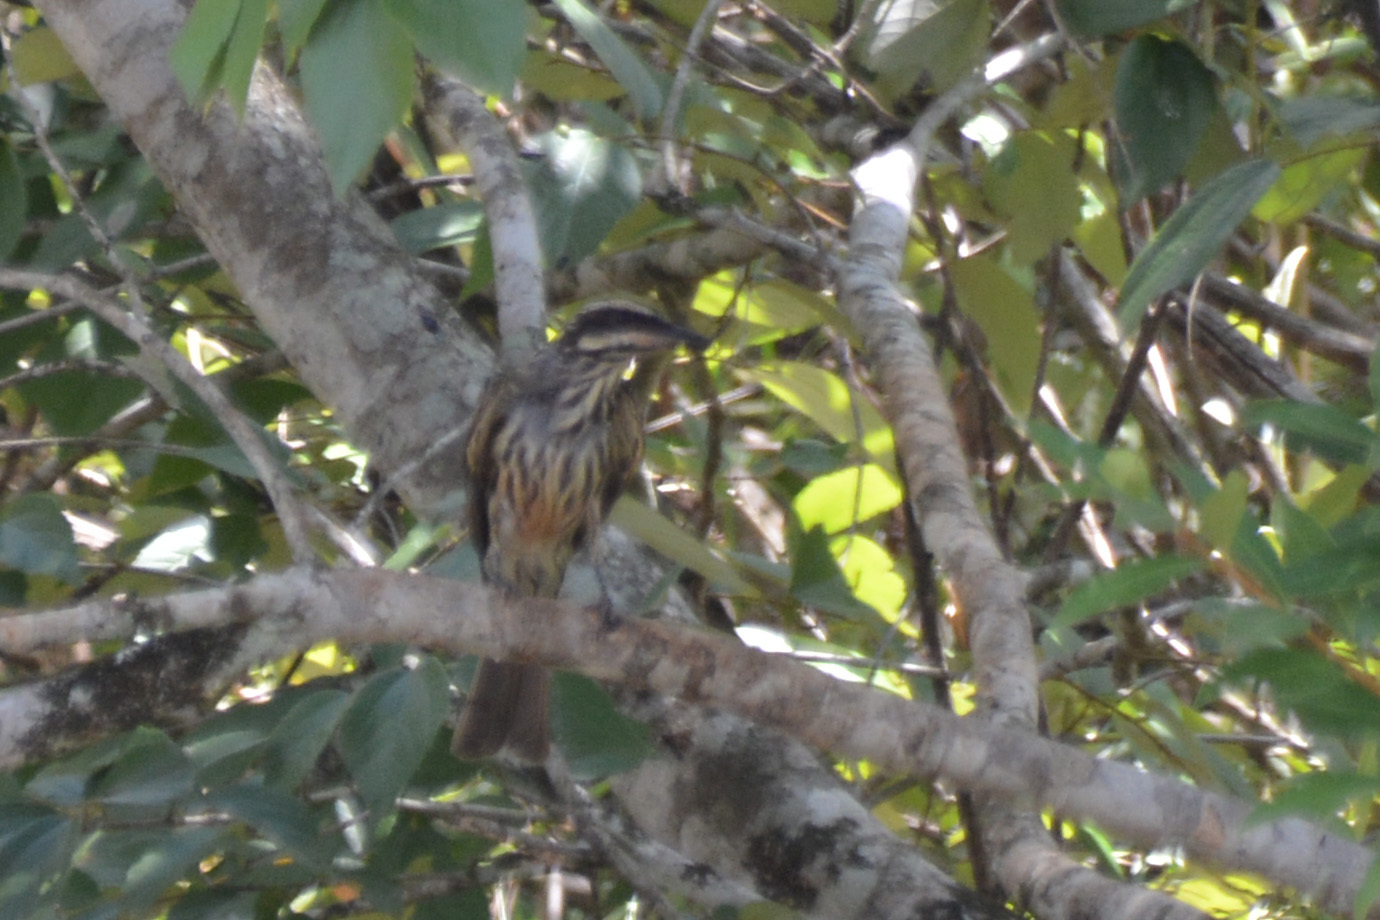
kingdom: Animalia
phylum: Chordata
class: Aves
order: Passeriformes
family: Tyrannidae
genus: Myiodynastes
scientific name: Myiodynastes maculatus
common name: Streaked flycatcher
